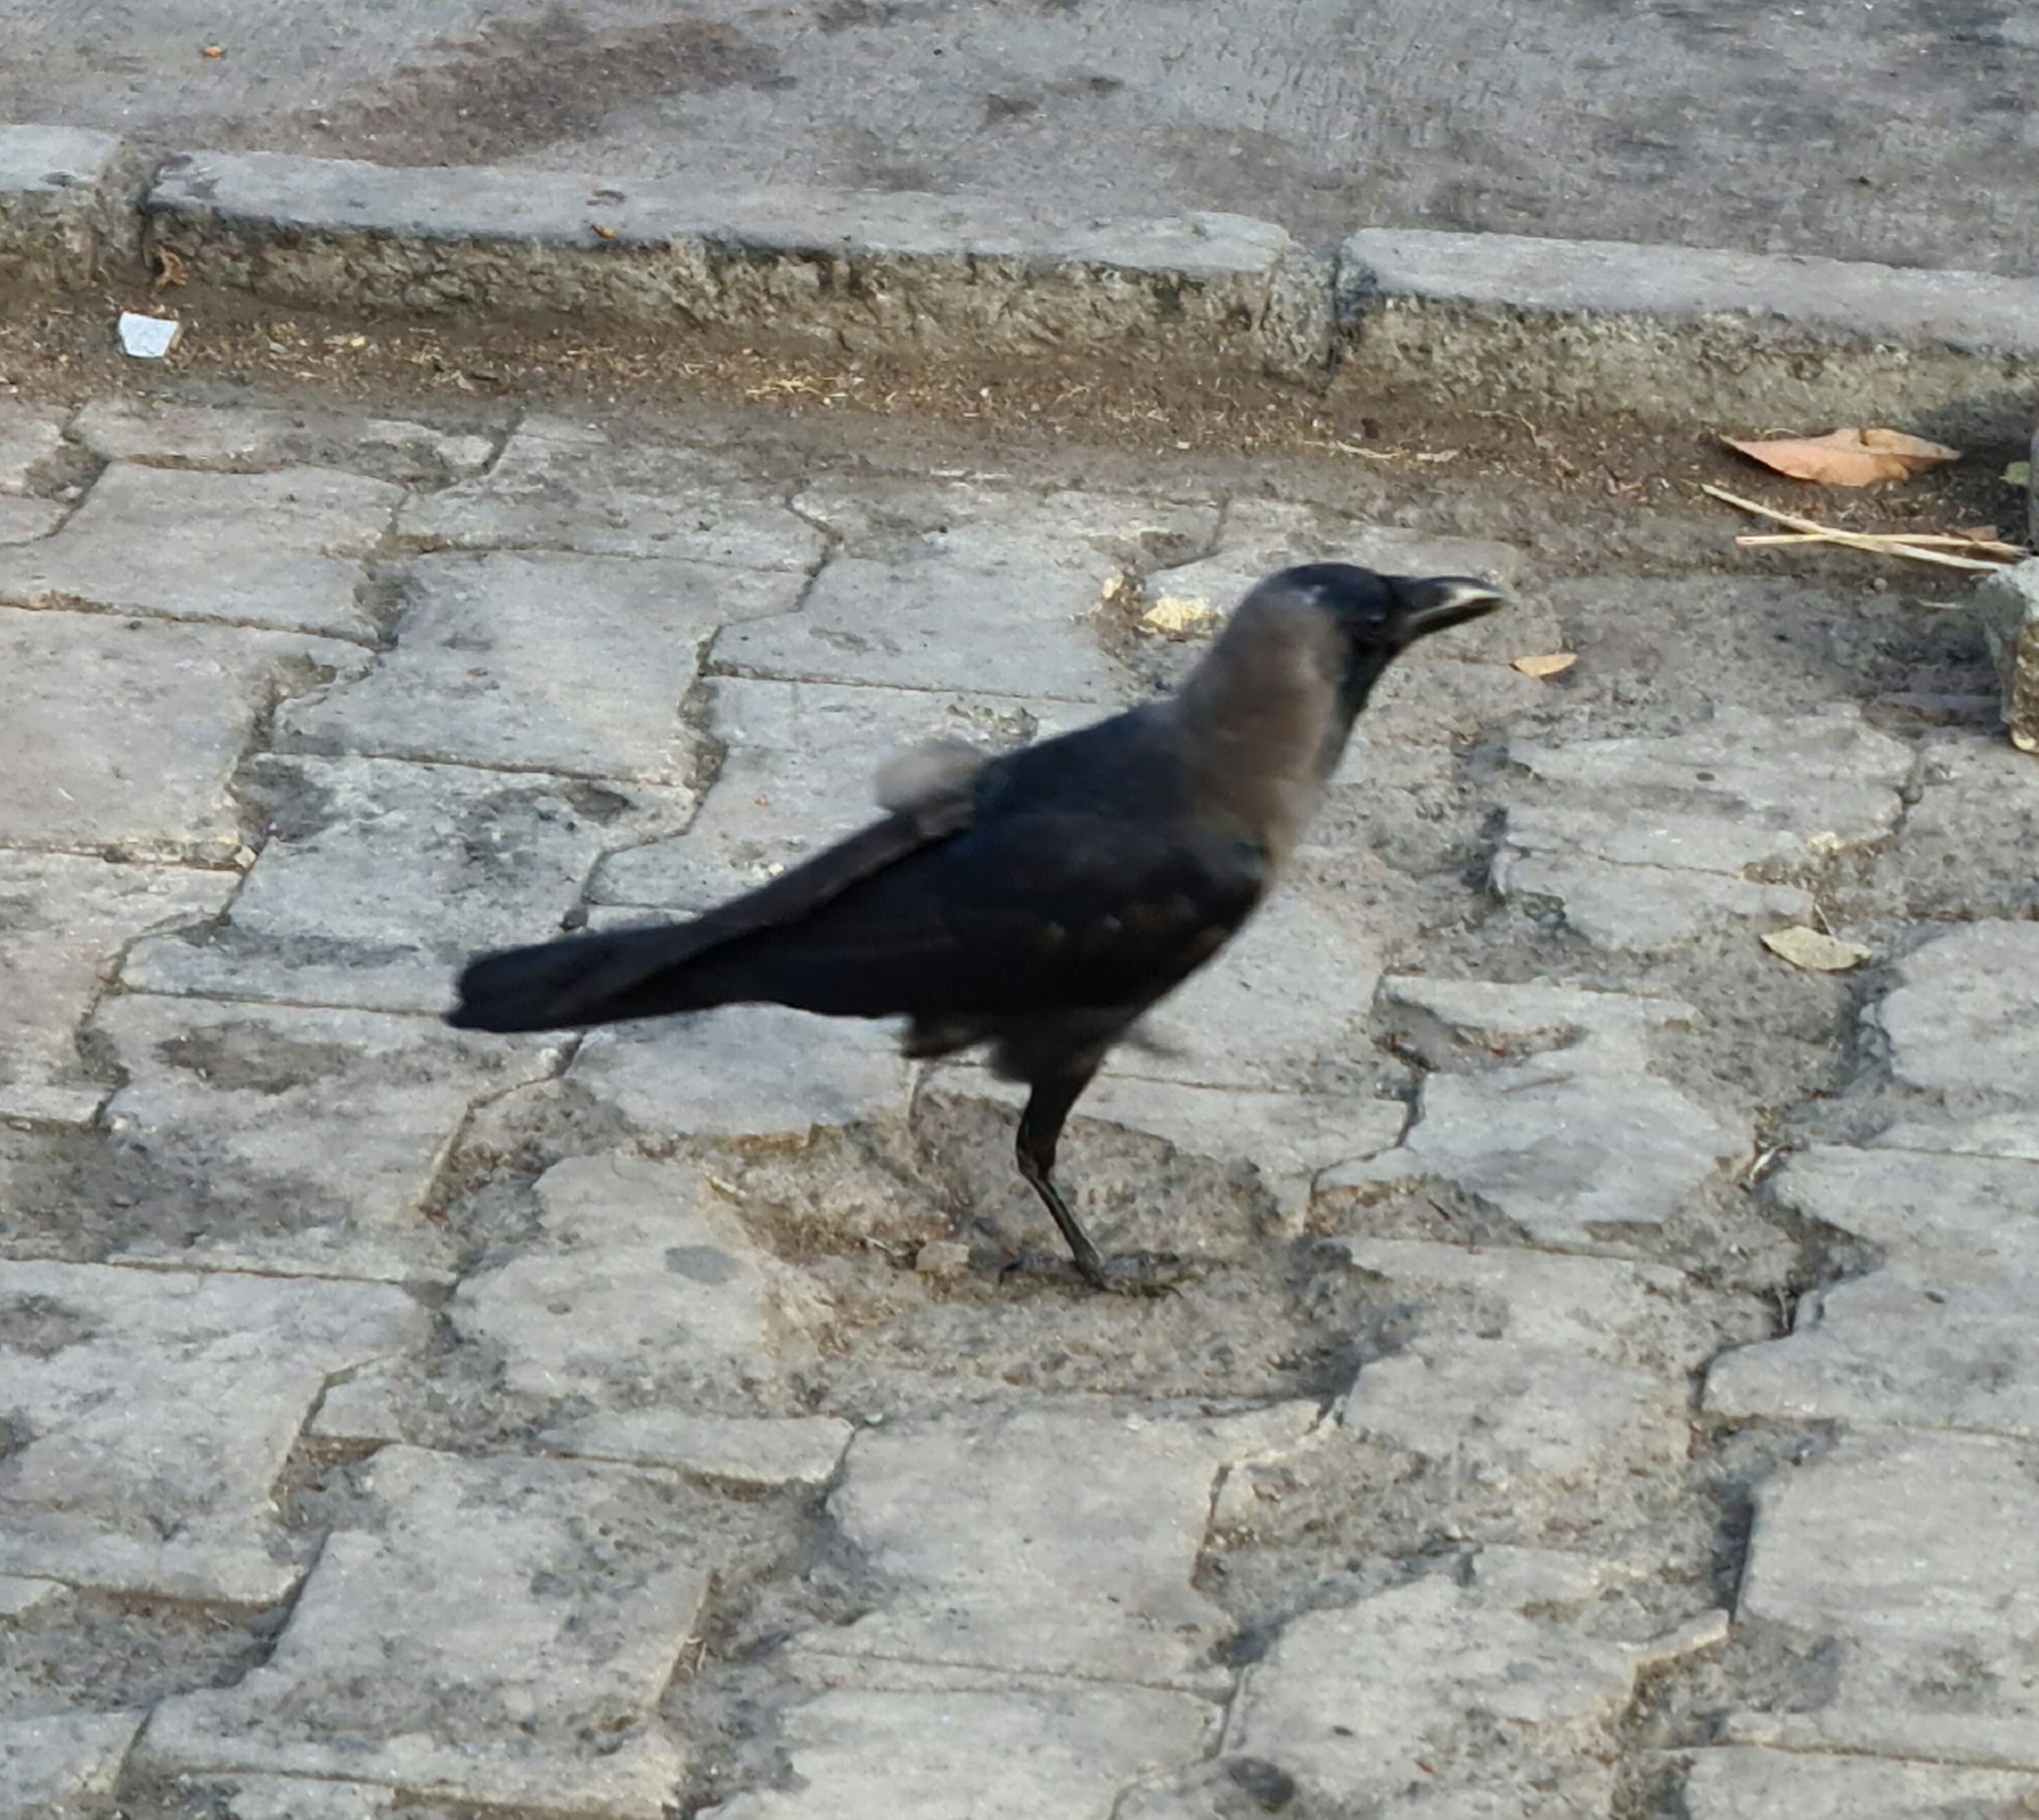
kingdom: Animalia
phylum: Chordata
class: Aves
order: Passeriformes
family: Corvidae
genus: Corvus
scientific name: Corvus splendens
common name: House crow
